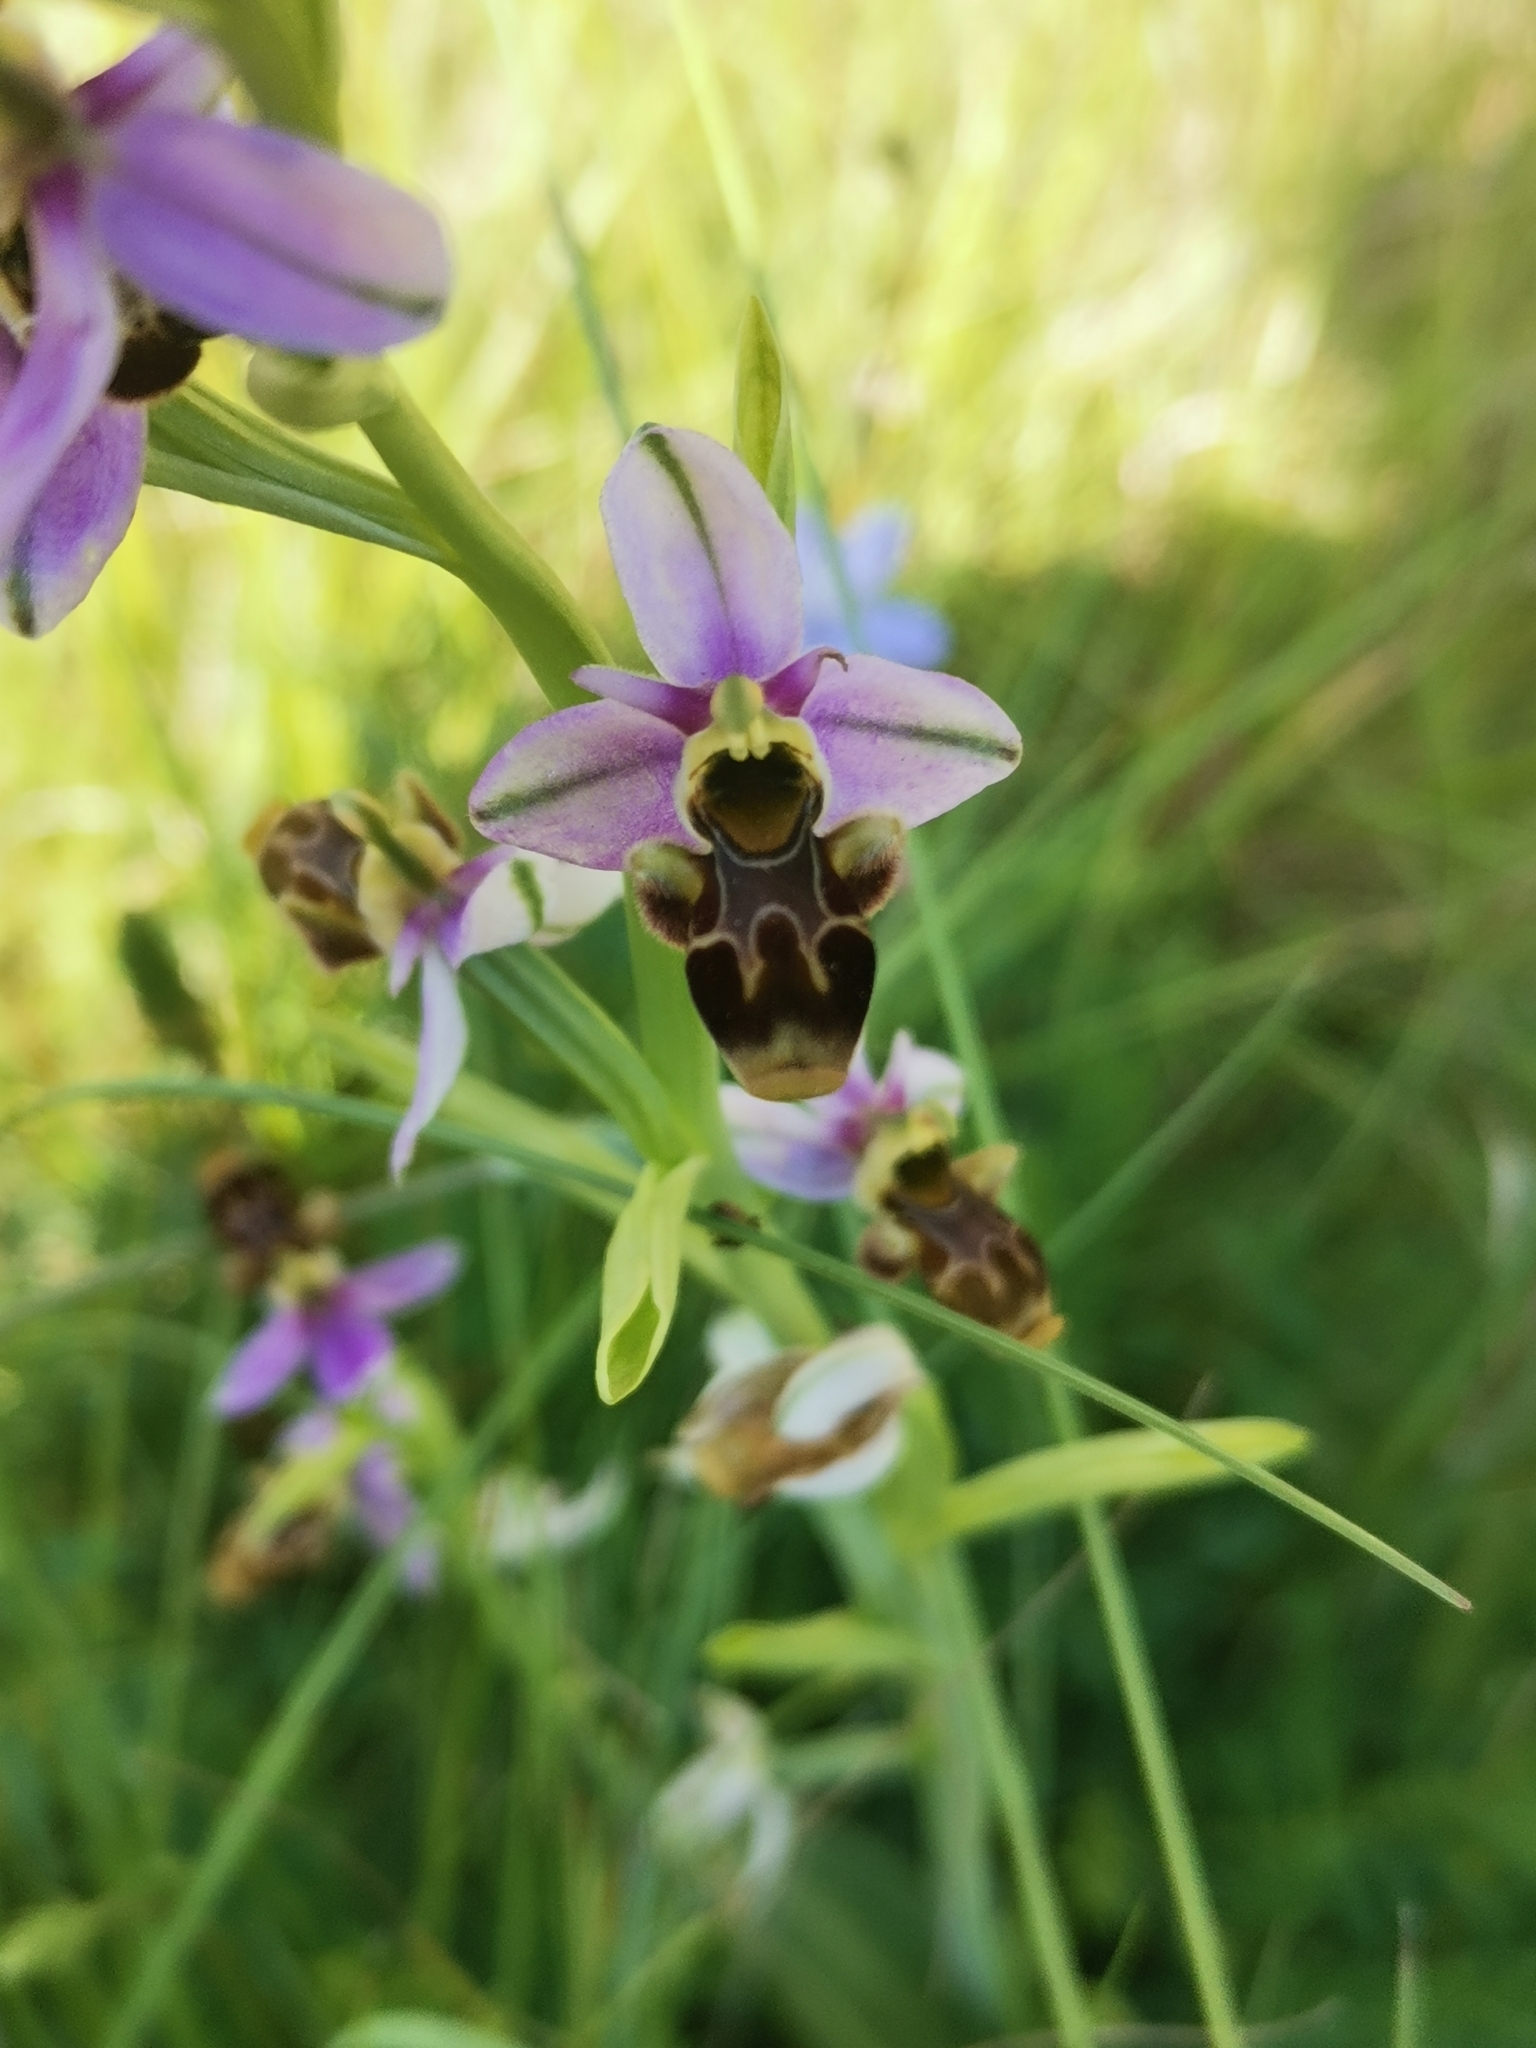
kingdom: Plantae
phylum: Tracheophyta
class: Liliopsida
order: Asparagales
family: Orchidaceae
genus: Ophrys
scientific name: Ophrys scolopax
